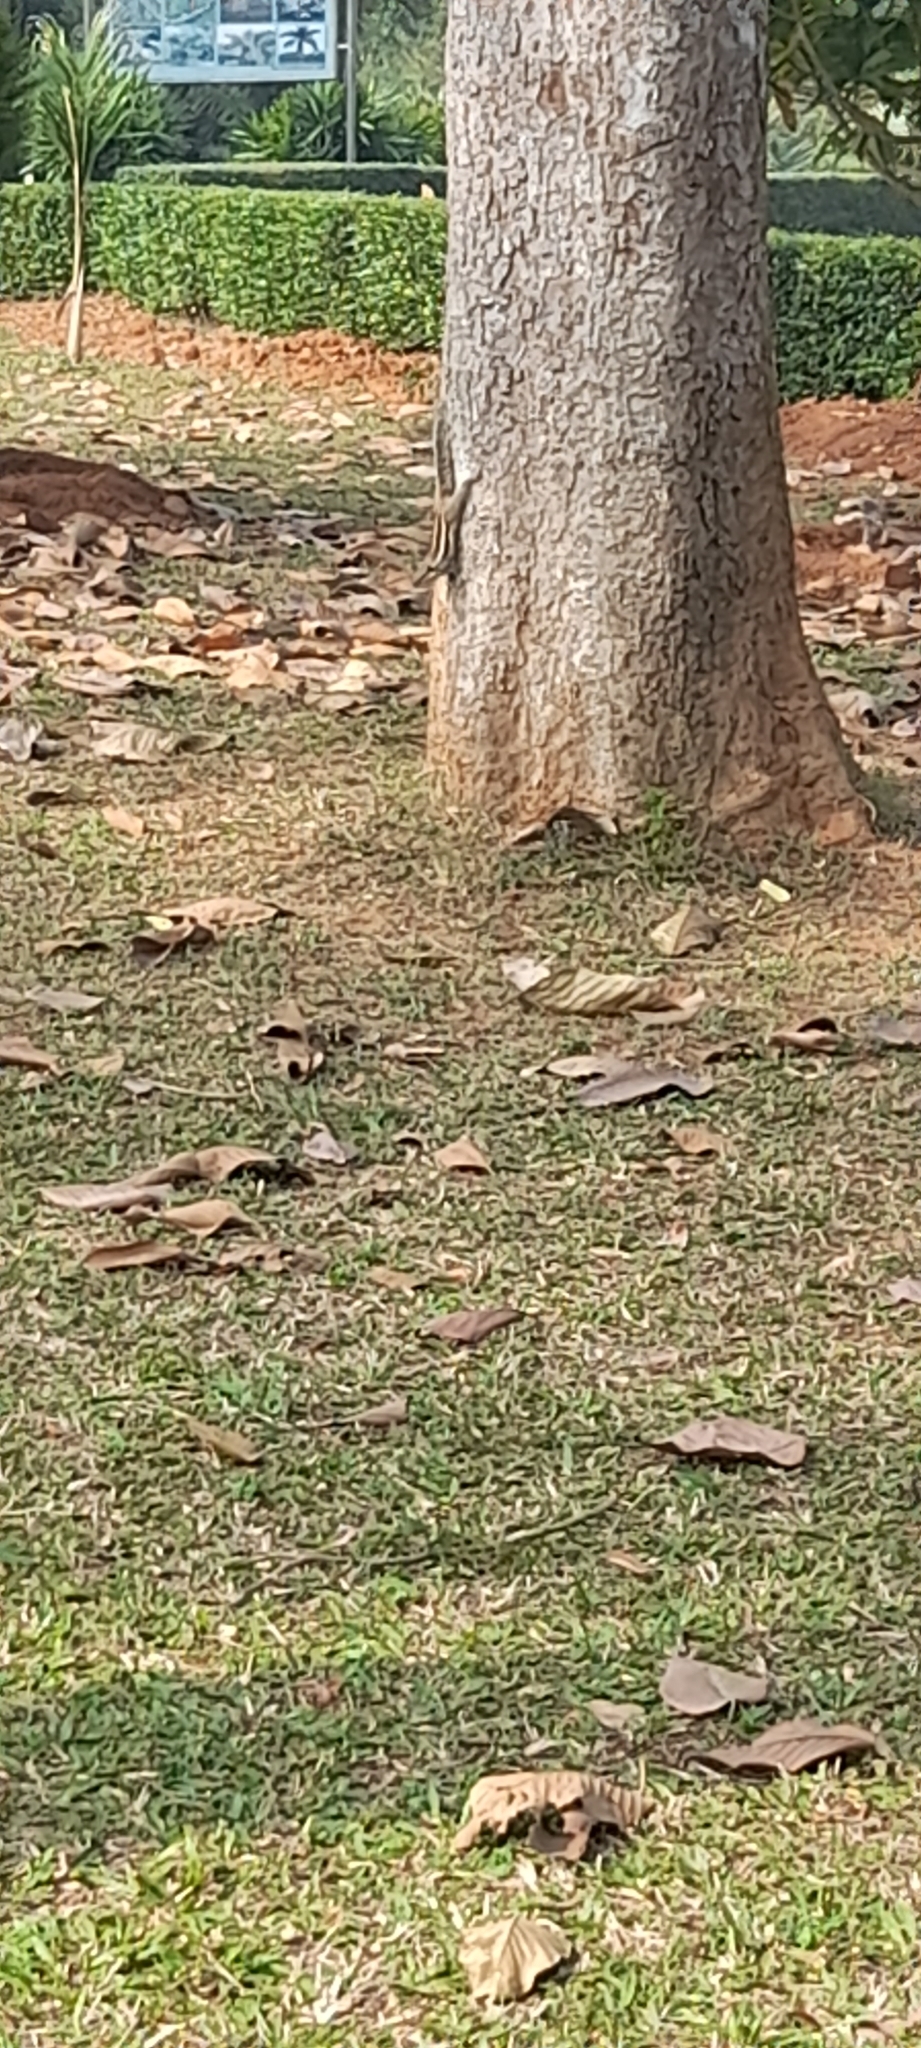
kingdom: Animalia
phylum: Chordata
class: Mammalia
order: Rodentia
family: Sciuridae
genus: Funambulus
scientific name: Funambulus pennantii
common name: Northern palm squirrel
